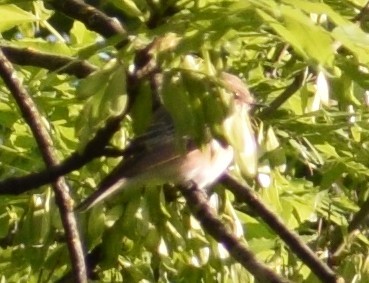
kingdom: Animalia
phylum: Chordata
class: Aves
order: Passeriformes
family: Muscicapidae
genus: Muscicapa
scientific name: Muscicapa striata
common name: Spotted flycatcher
